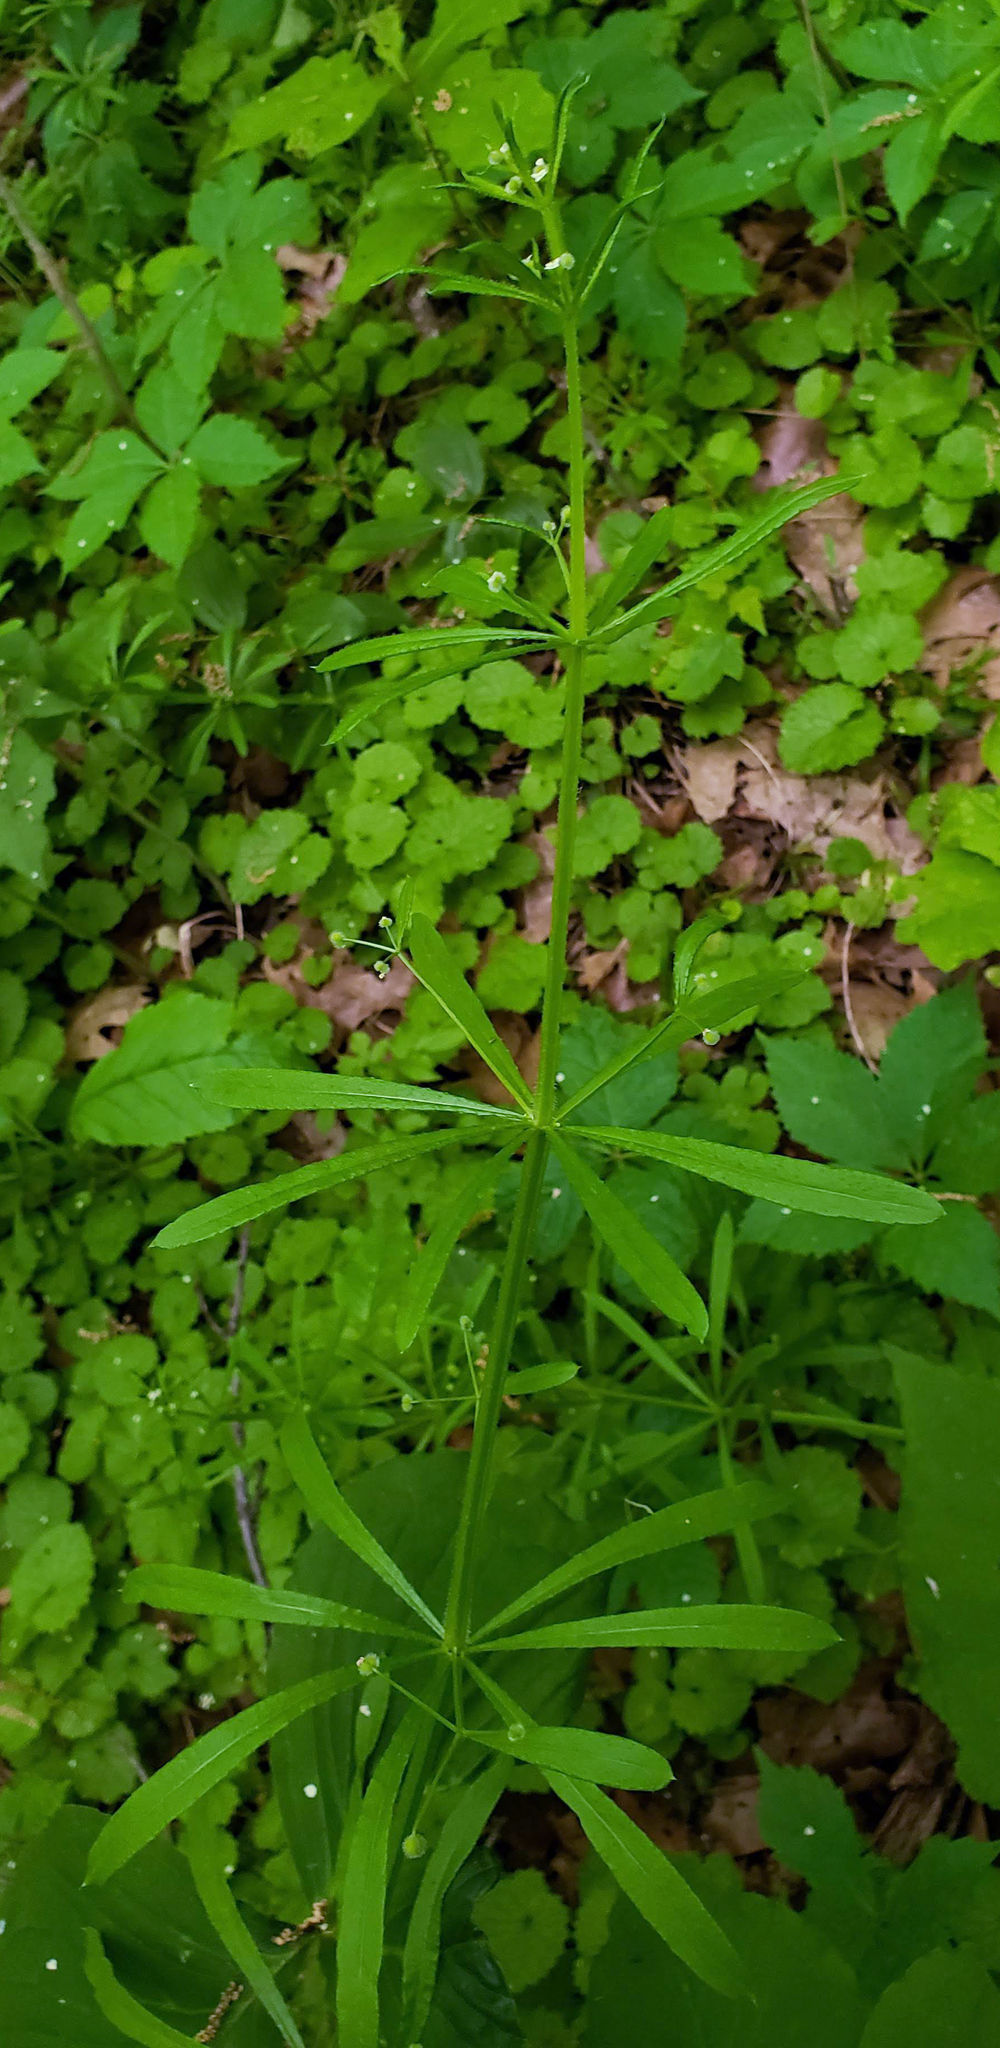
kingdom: Plantae
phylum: Tracheophyta
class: Magnoliopsida
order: Gentianales
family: Rubiaceae
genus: Galium
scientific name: Galium aparine
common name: Cleavers
